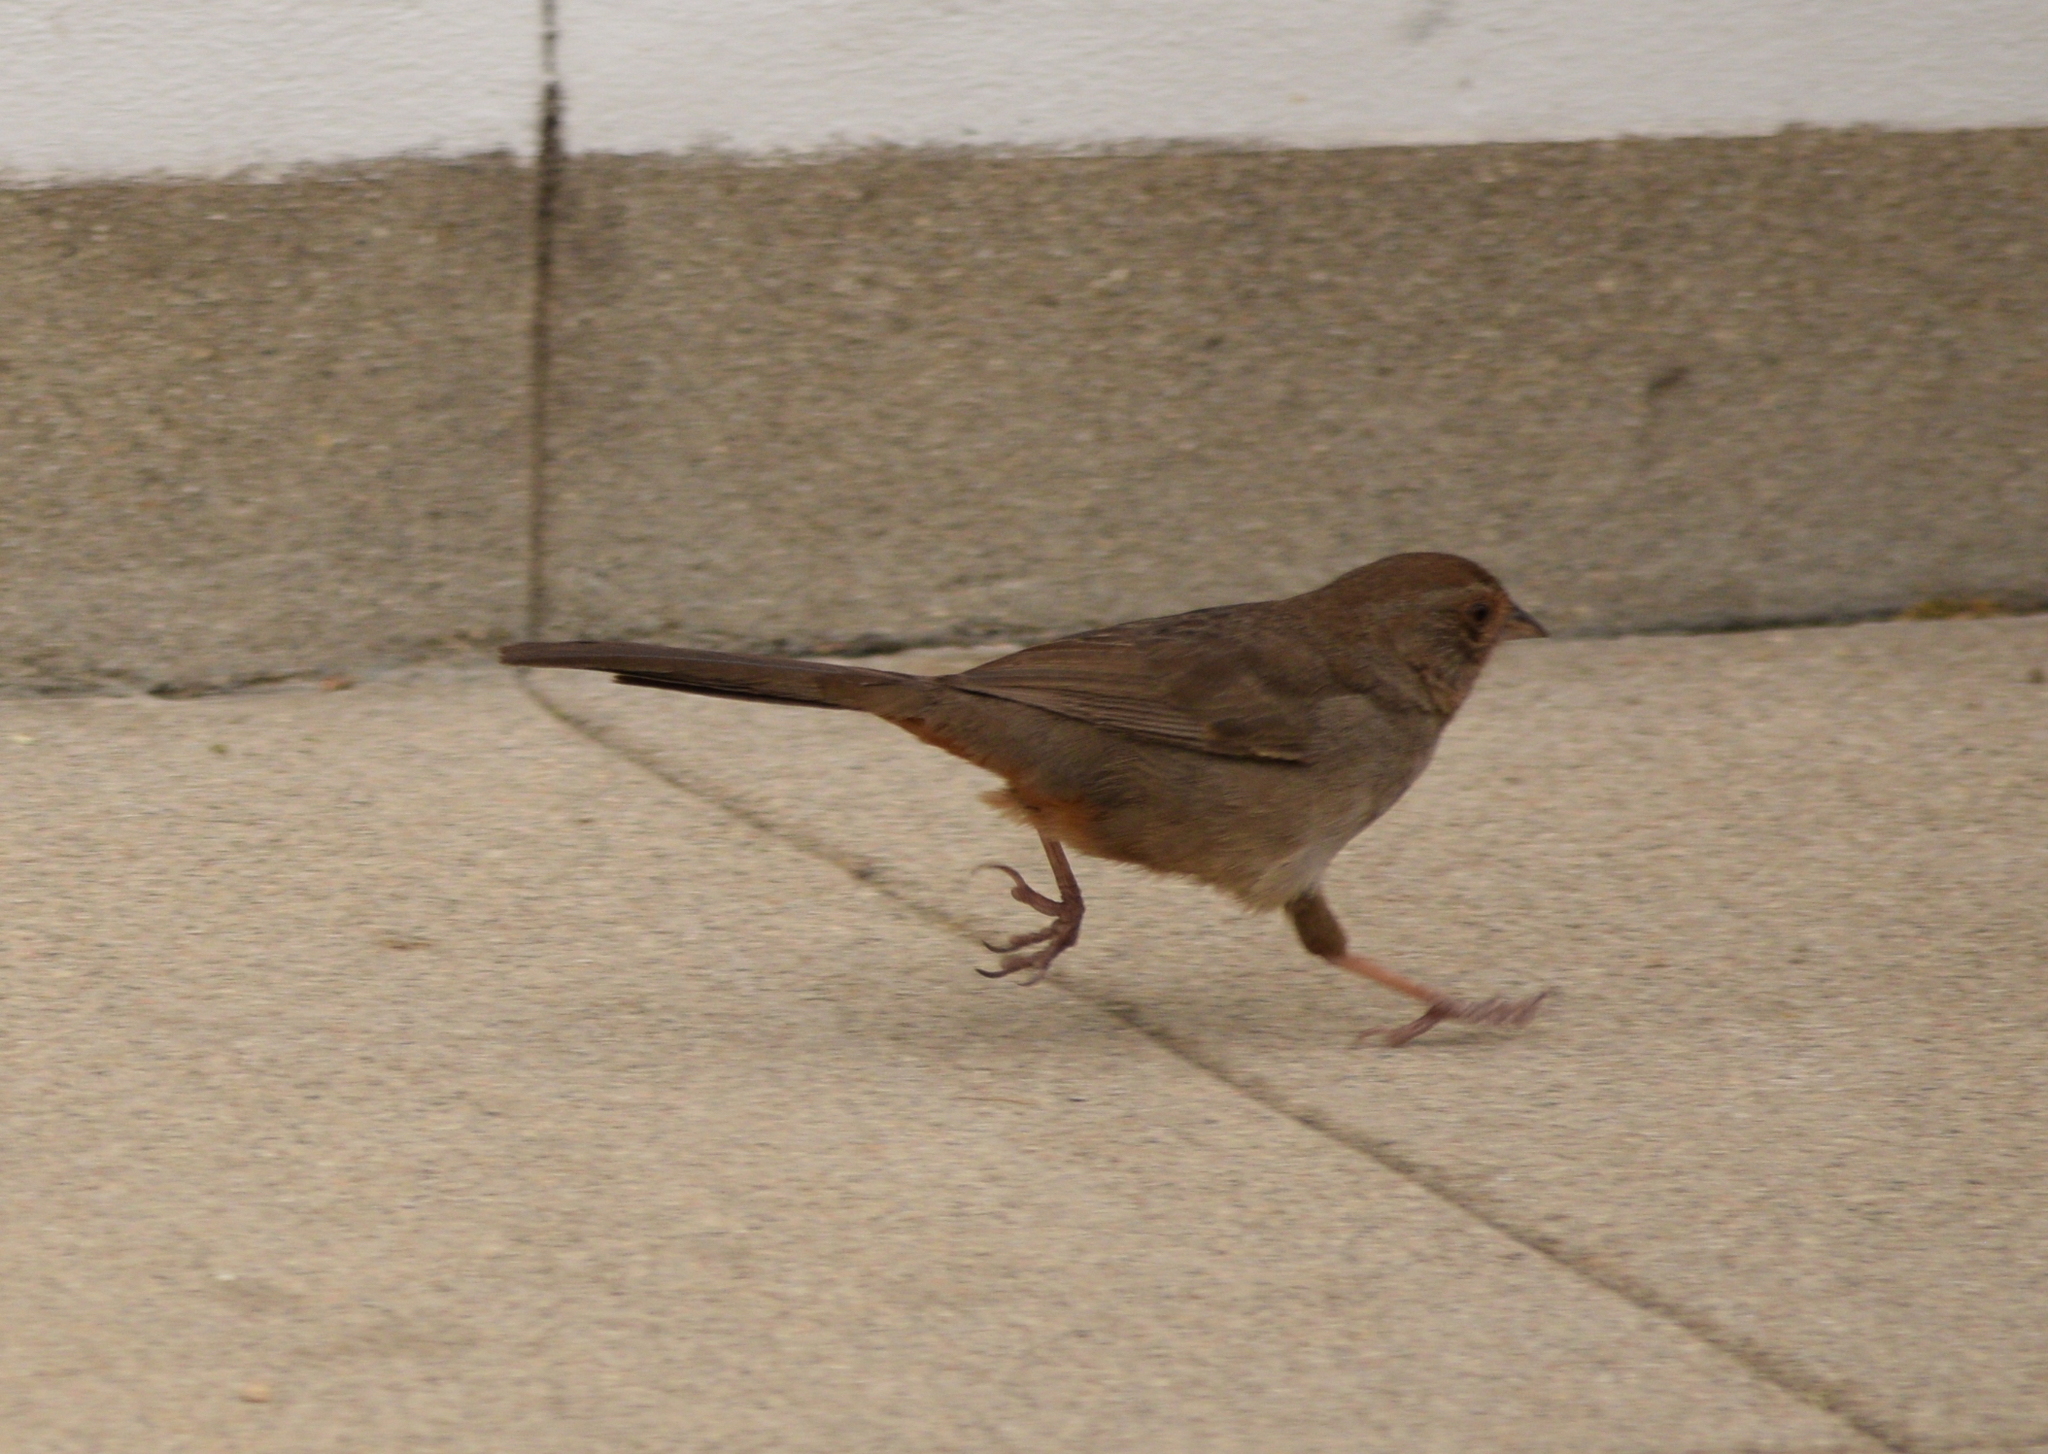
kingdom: Animalia
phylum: Chordata
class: Aves
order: Passeriformes
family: Passerellidae
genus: Melozone
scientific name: Melozone crissalis
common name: California towhee
